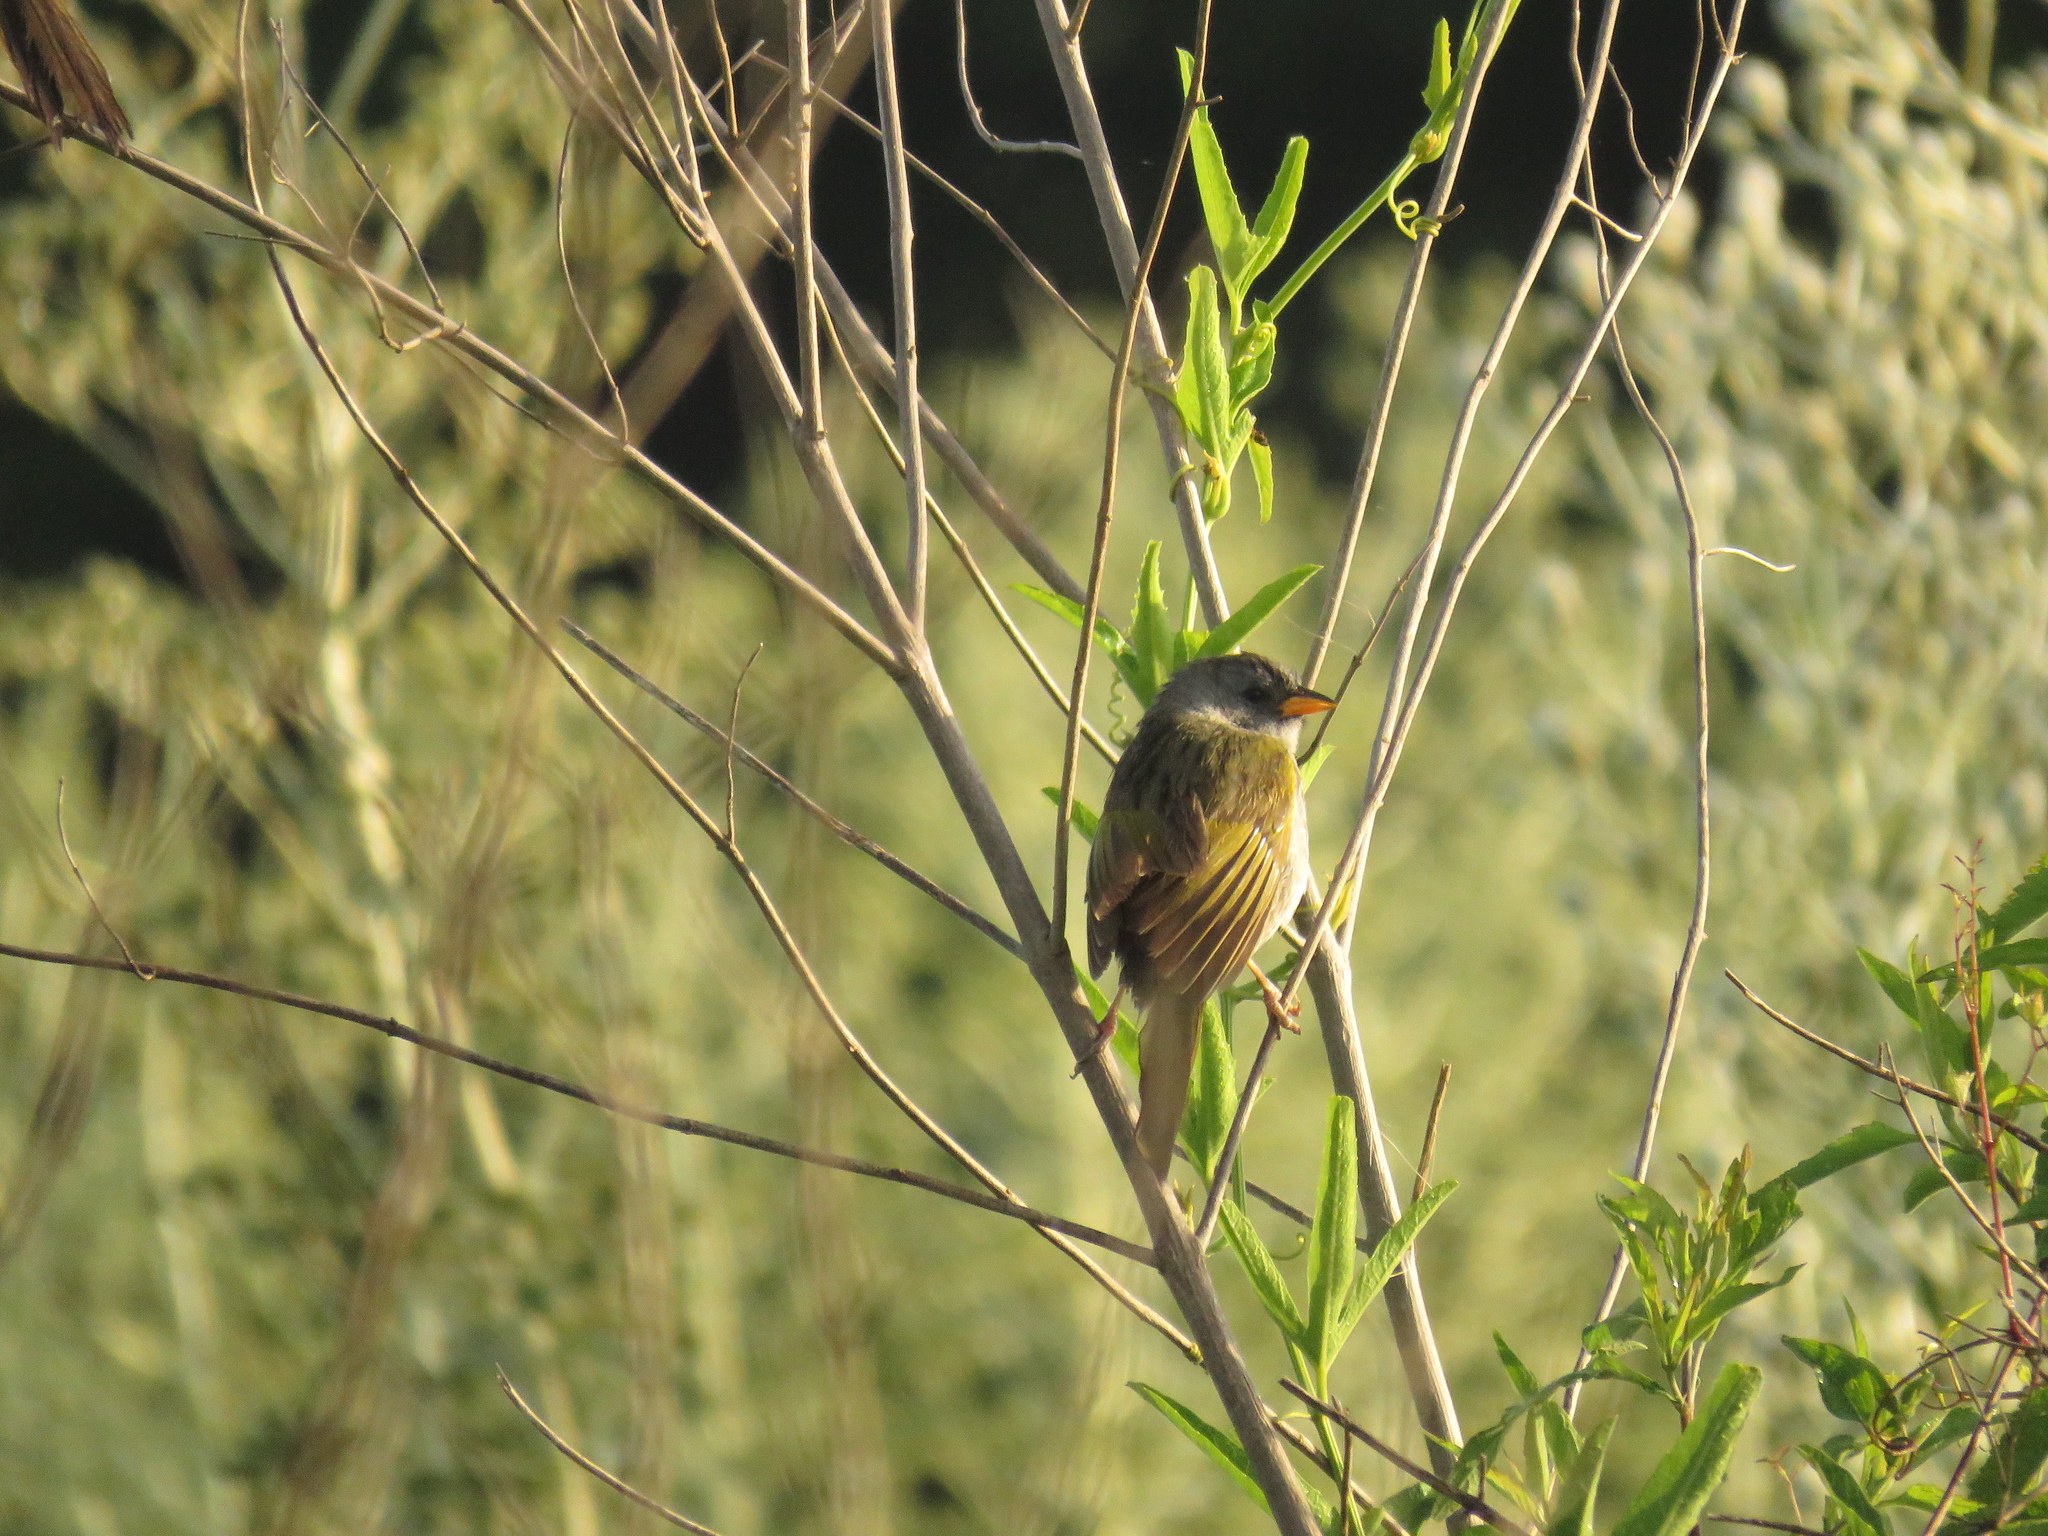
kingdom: Animalia
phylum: Chordata
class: Aves
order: Passeriformes
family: Thraupidae
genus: Embernagra
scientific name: Embernagra platensis
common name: Pampa finch
